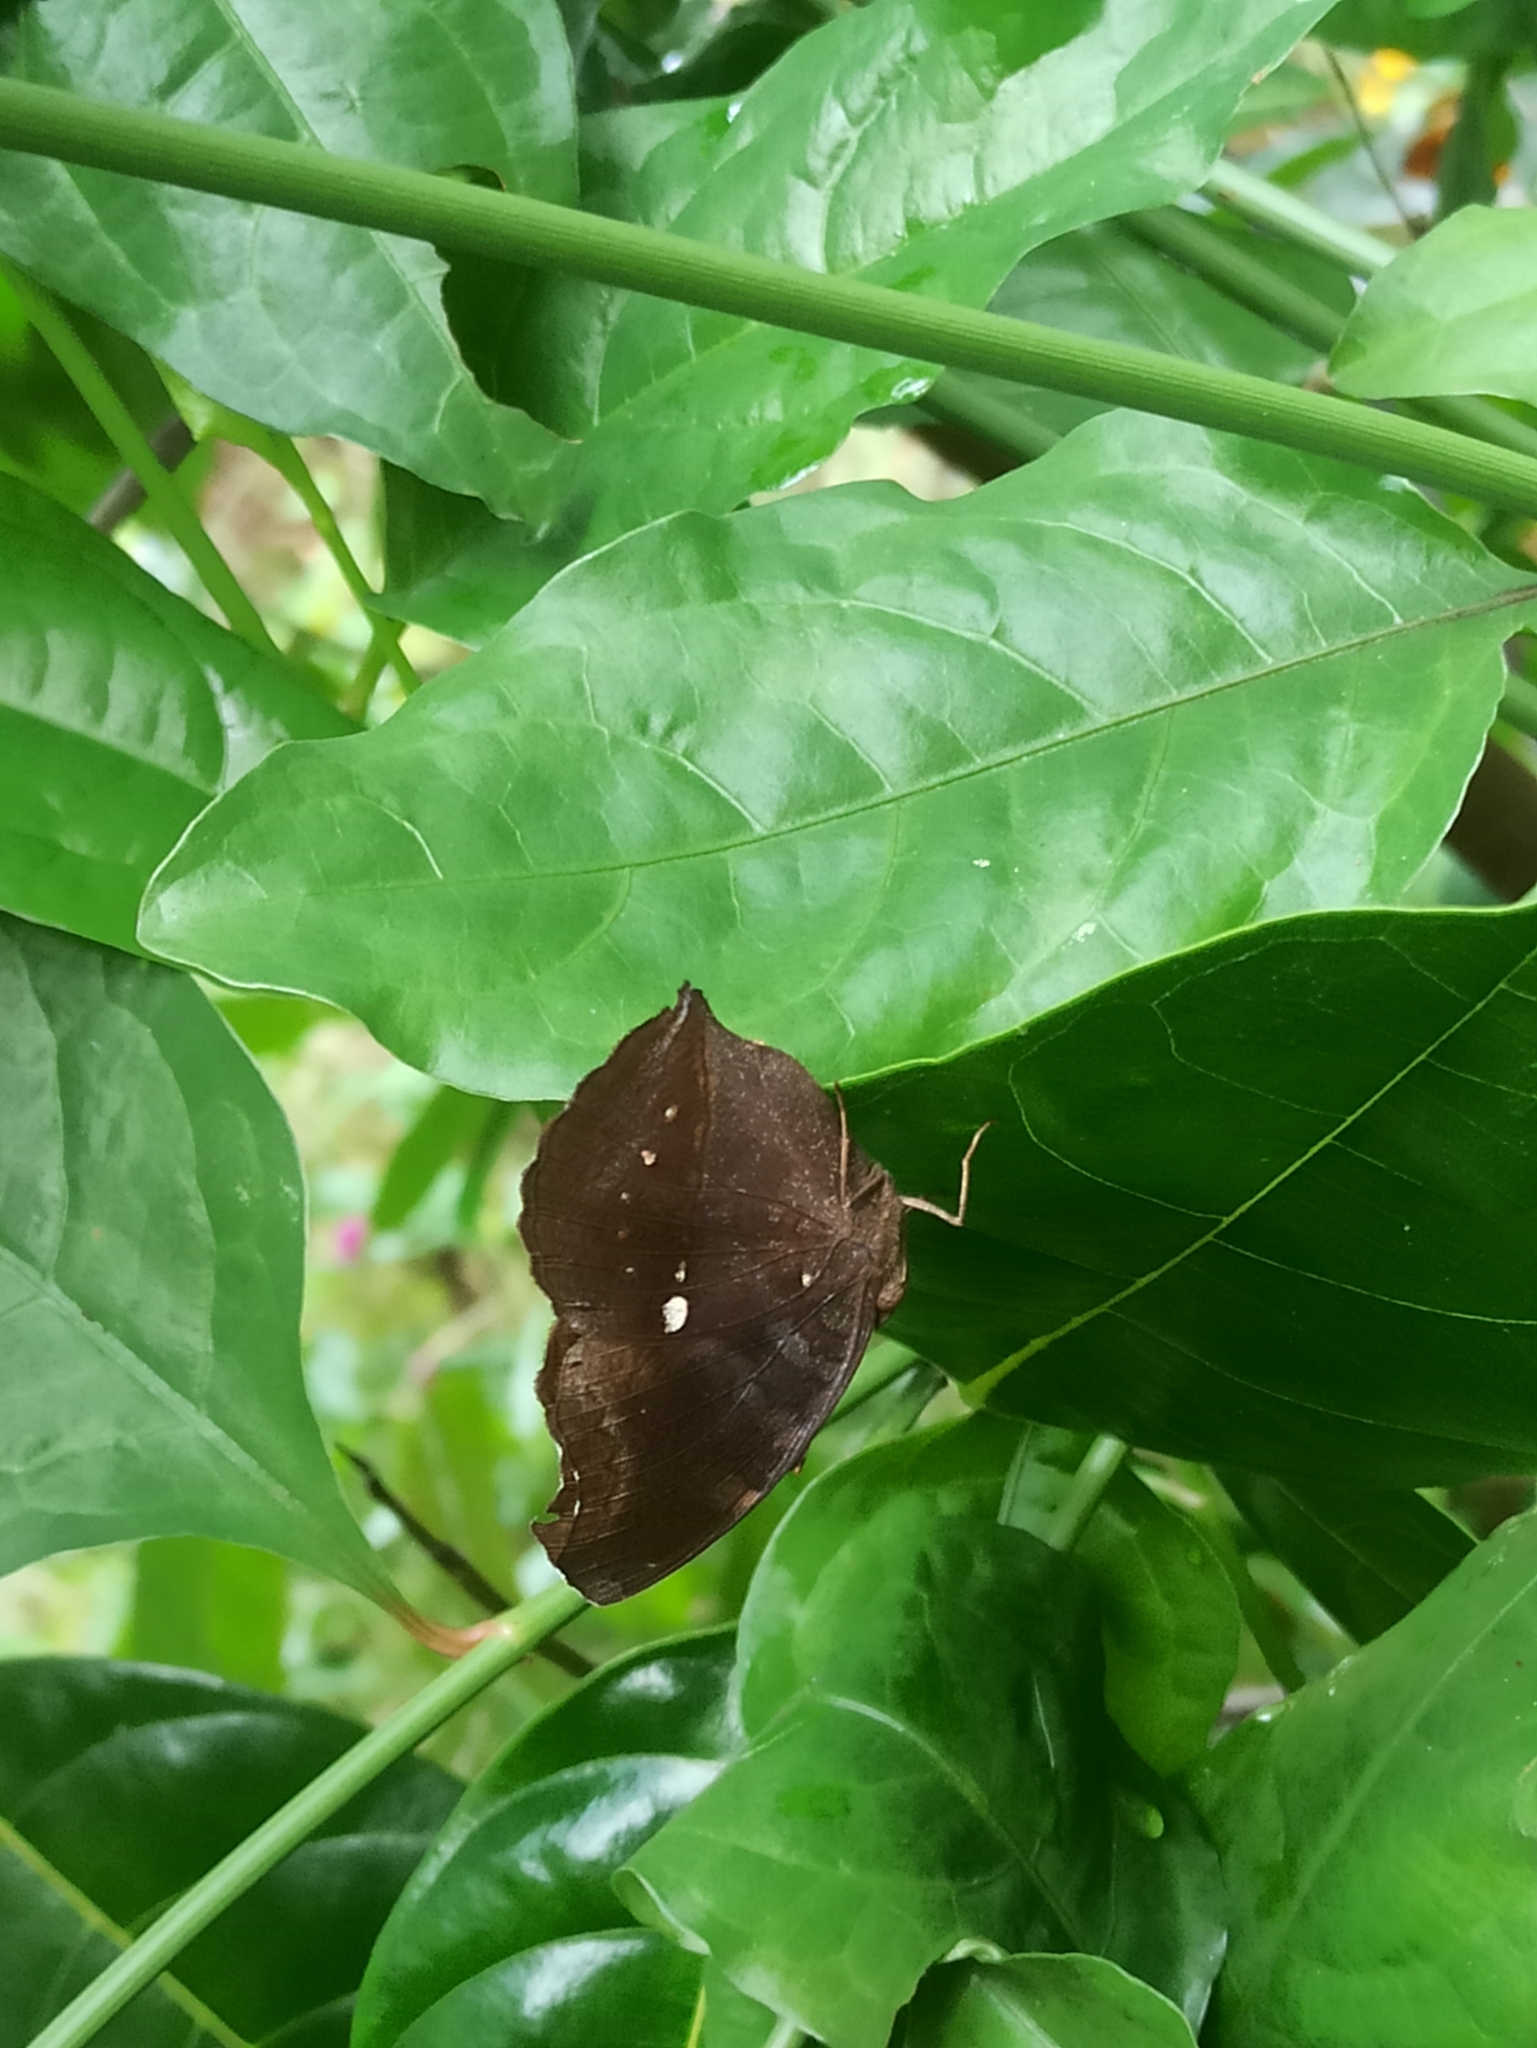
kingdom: Animalia
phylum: Arthropoda
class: Insecta
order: Lepidoptera
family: Nymphalidae
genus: Junonia
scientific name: Junonia iphita
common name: Chocolate pansy
